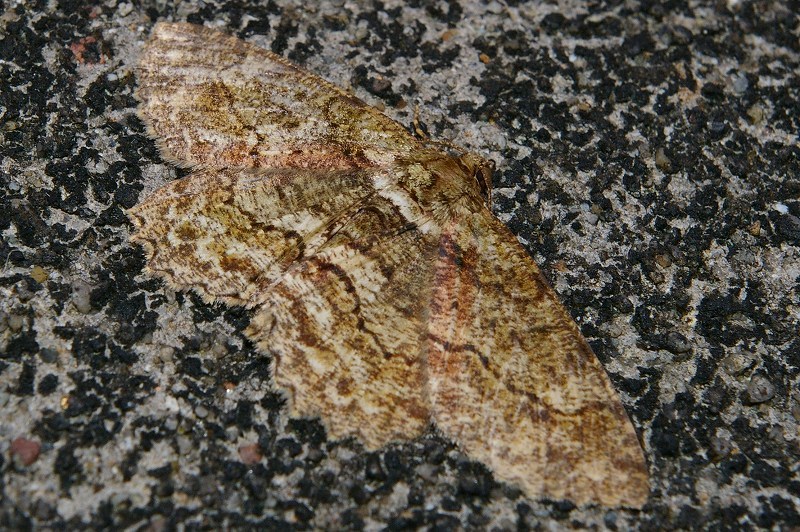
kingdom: Animalia
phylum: Arthropoda
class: Insecta
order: Lepidoptera
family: Geometridae
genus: Paradarisa
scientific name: Paradarisa chloauges
